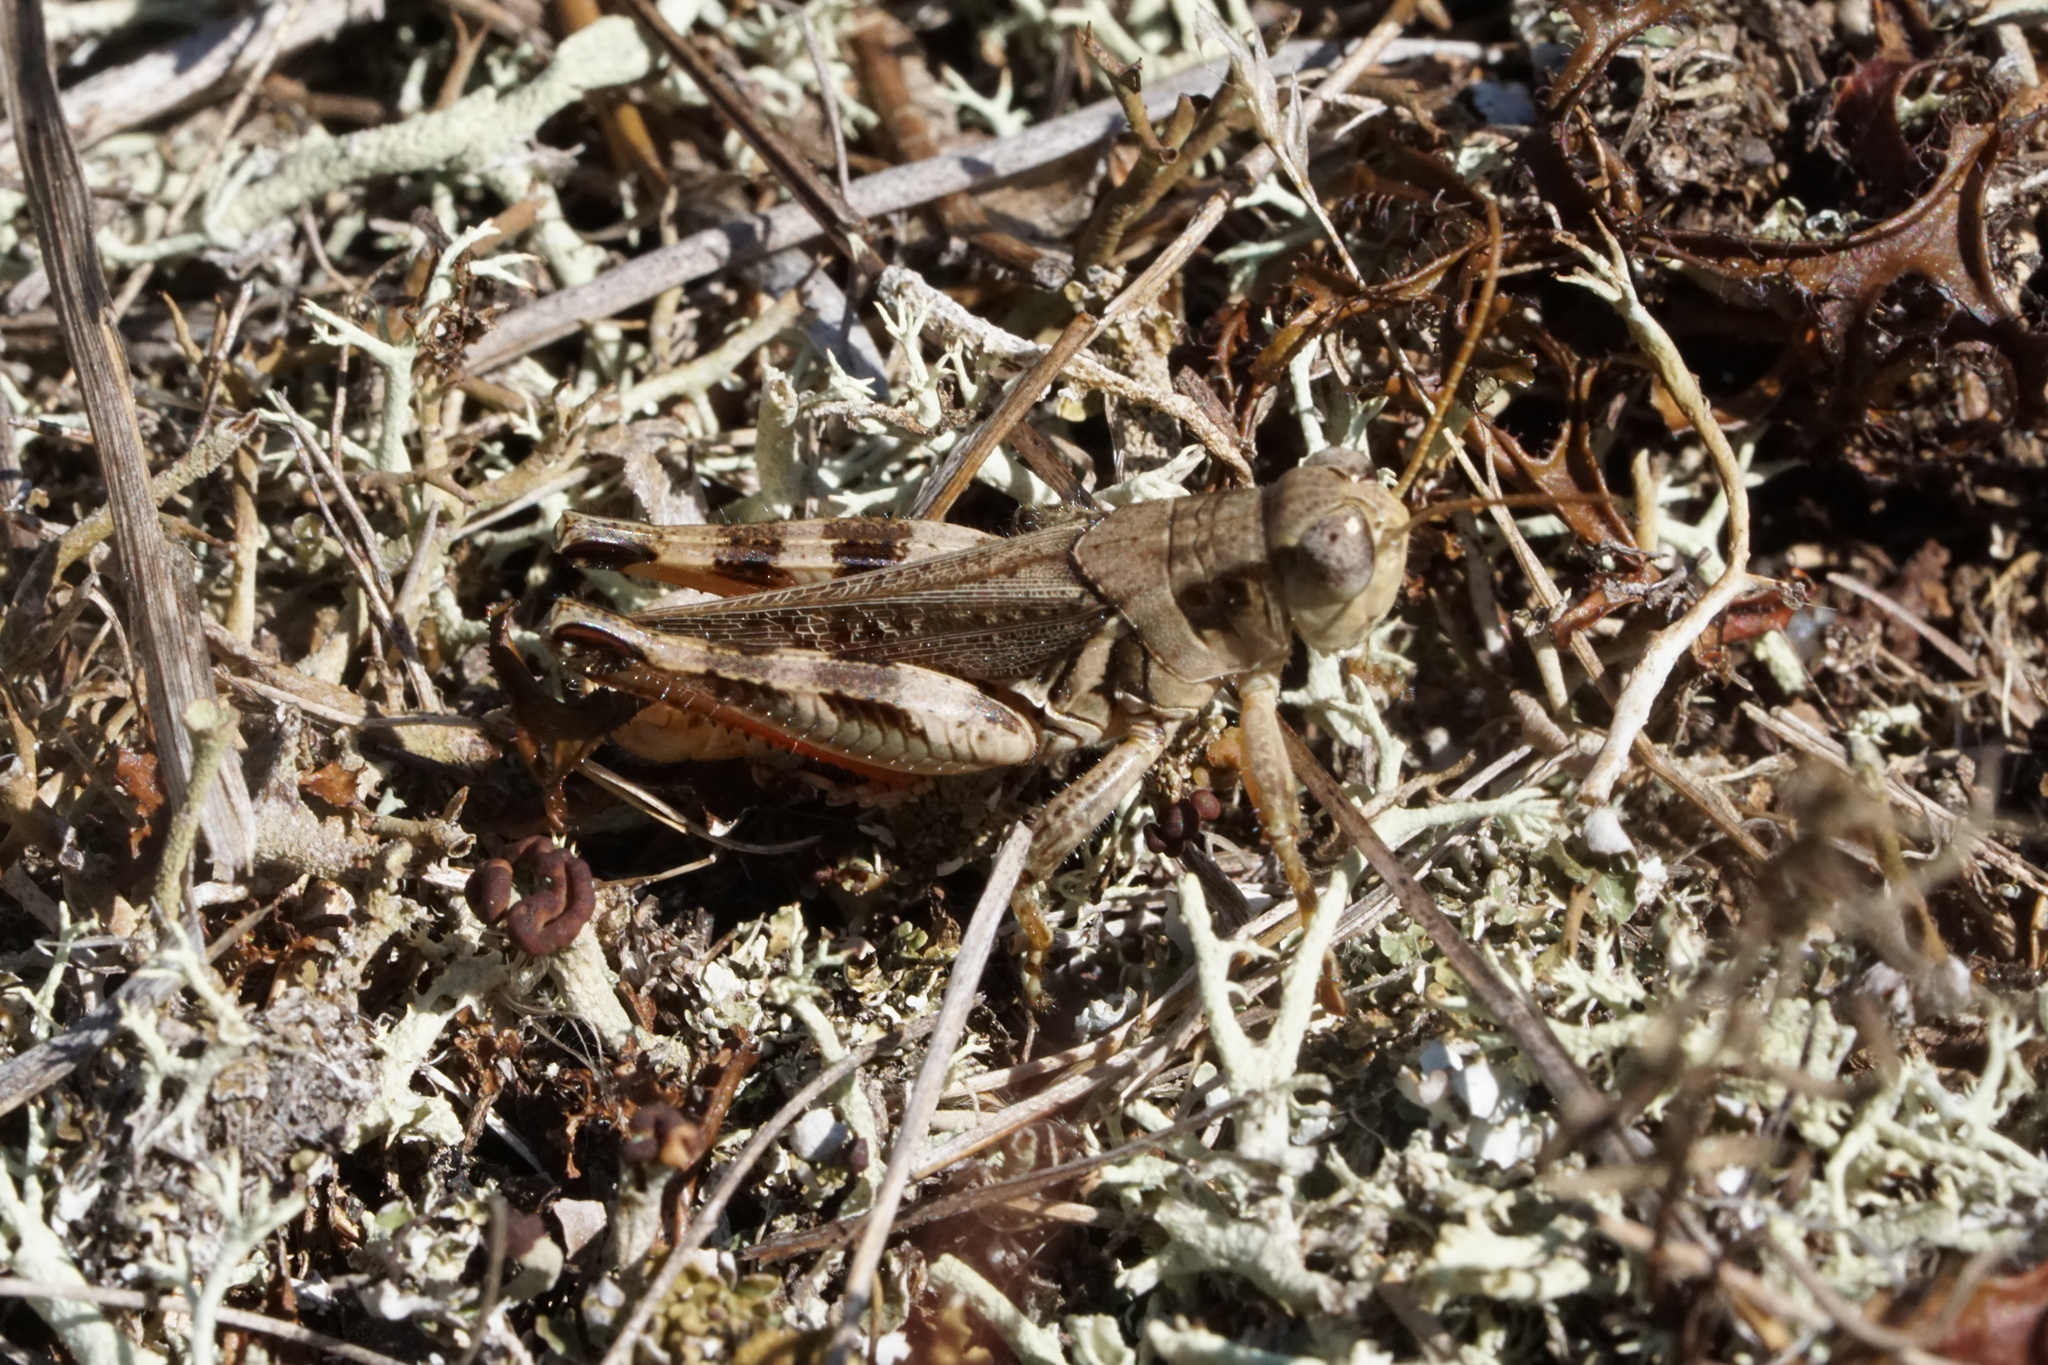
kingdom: Animalia
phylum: Arthropoda
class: Insecta
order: Orthoptera
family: Acrididae
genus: Melanoplus
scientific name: Melanoplus keeleri
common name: Keeler grasshopper
